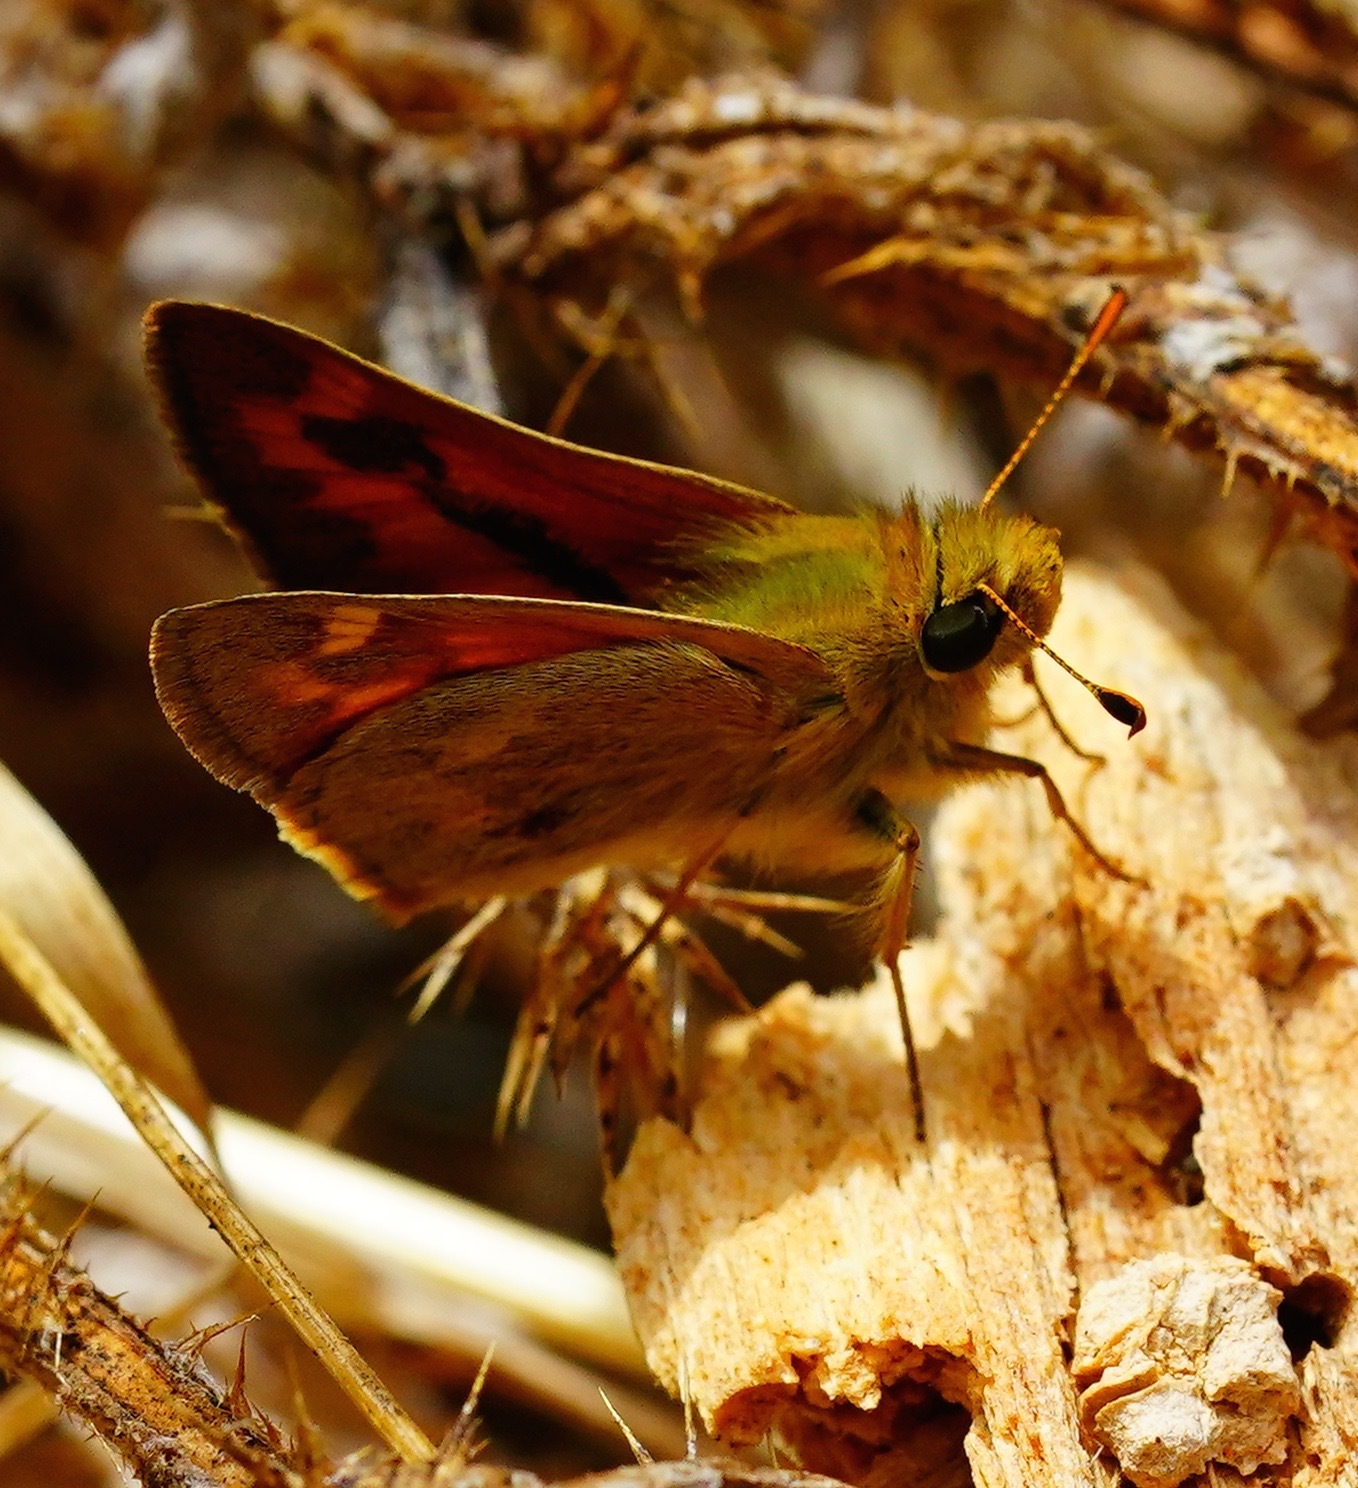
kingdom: Animalia
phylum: Arthropoda
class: Insecta
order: Lepidoptera
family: Hesperiidae
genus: Ochlodes
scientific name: Ochlodes sylvanoides
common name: Woodland skipper
